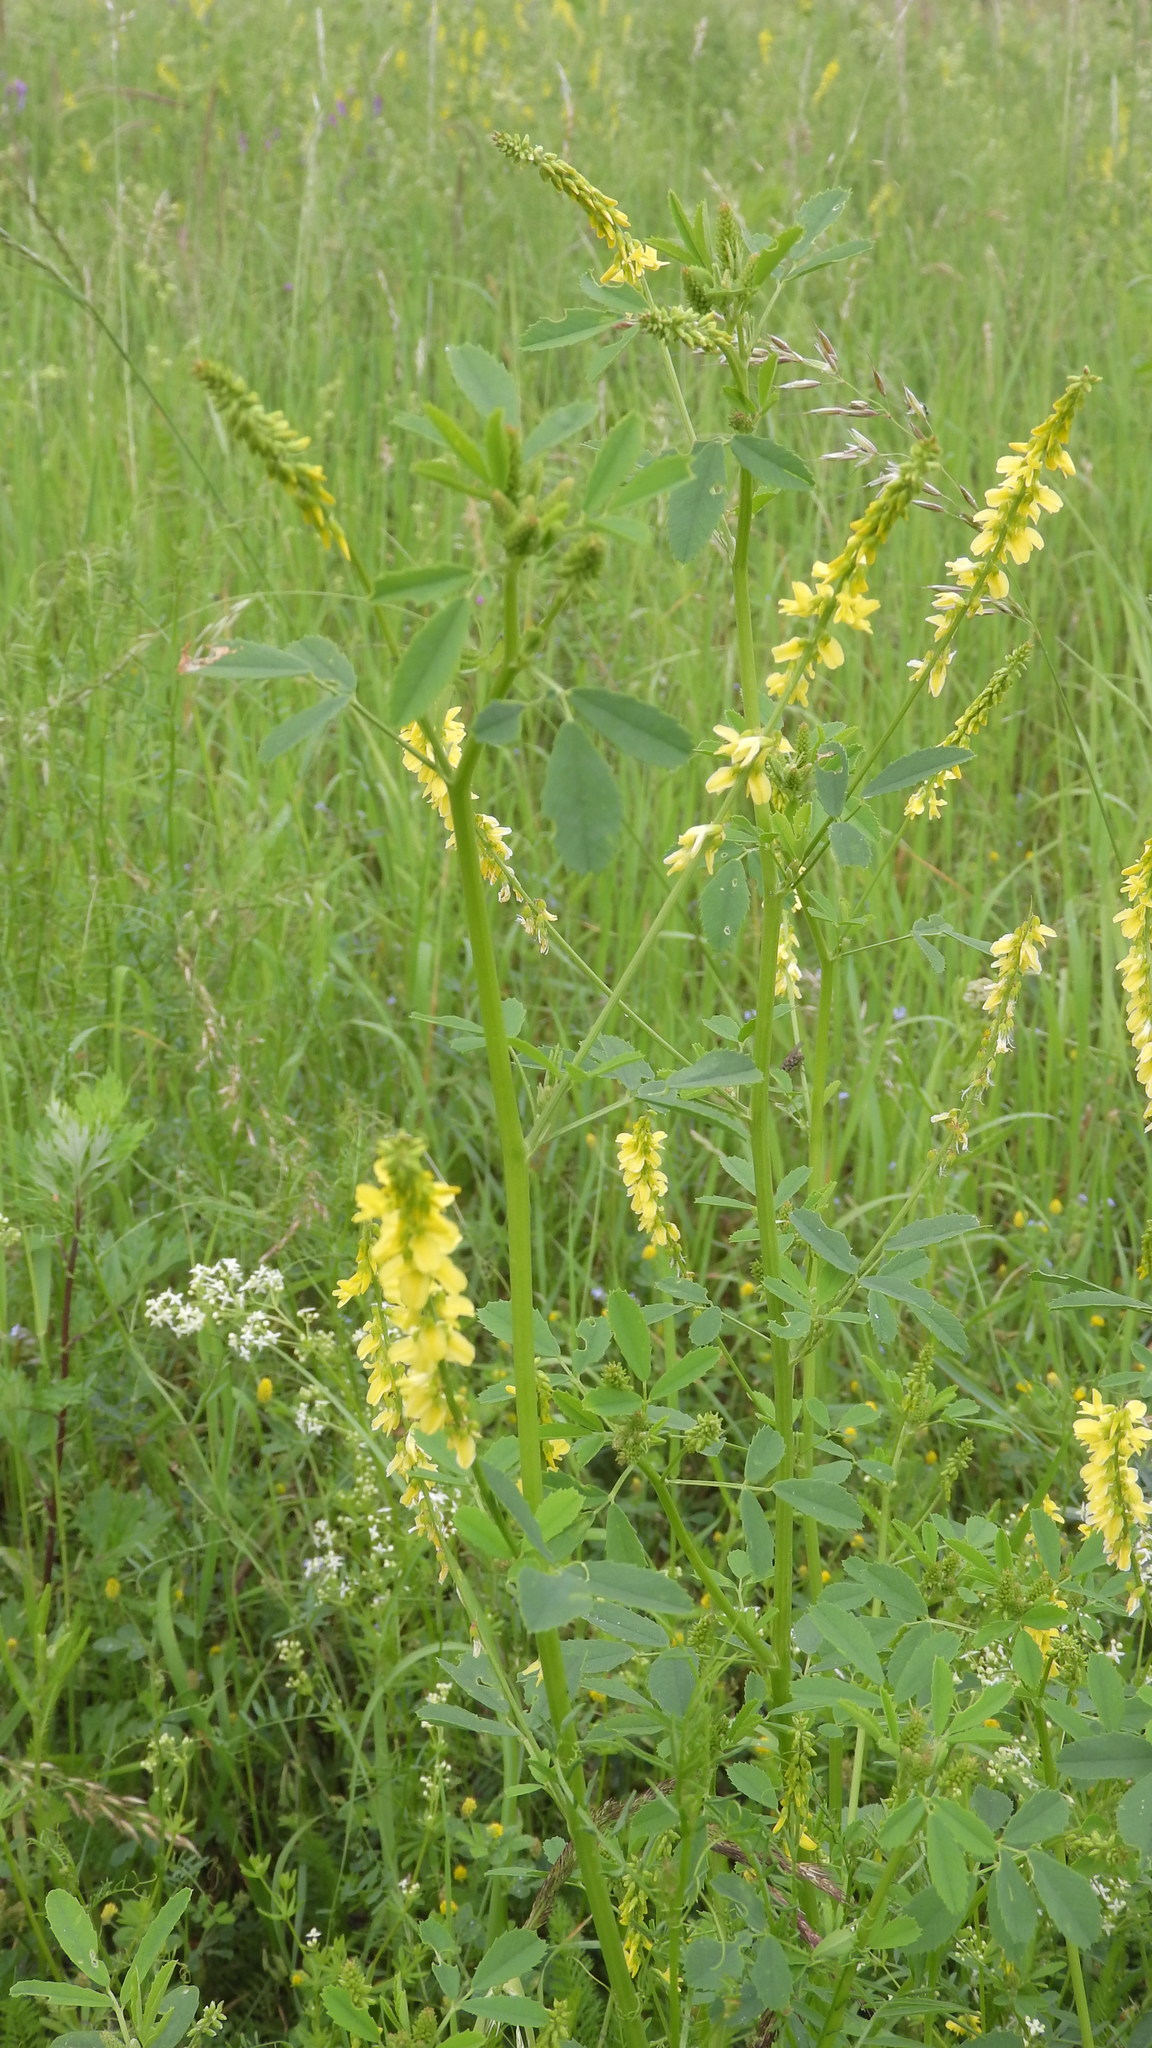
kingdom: Plantae
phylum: Tracheophyta
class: Magnoliopsida
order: Fabales
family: Fabaceae
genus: Melilotus
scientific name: Melilotus officinalis
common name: Sweetclover
